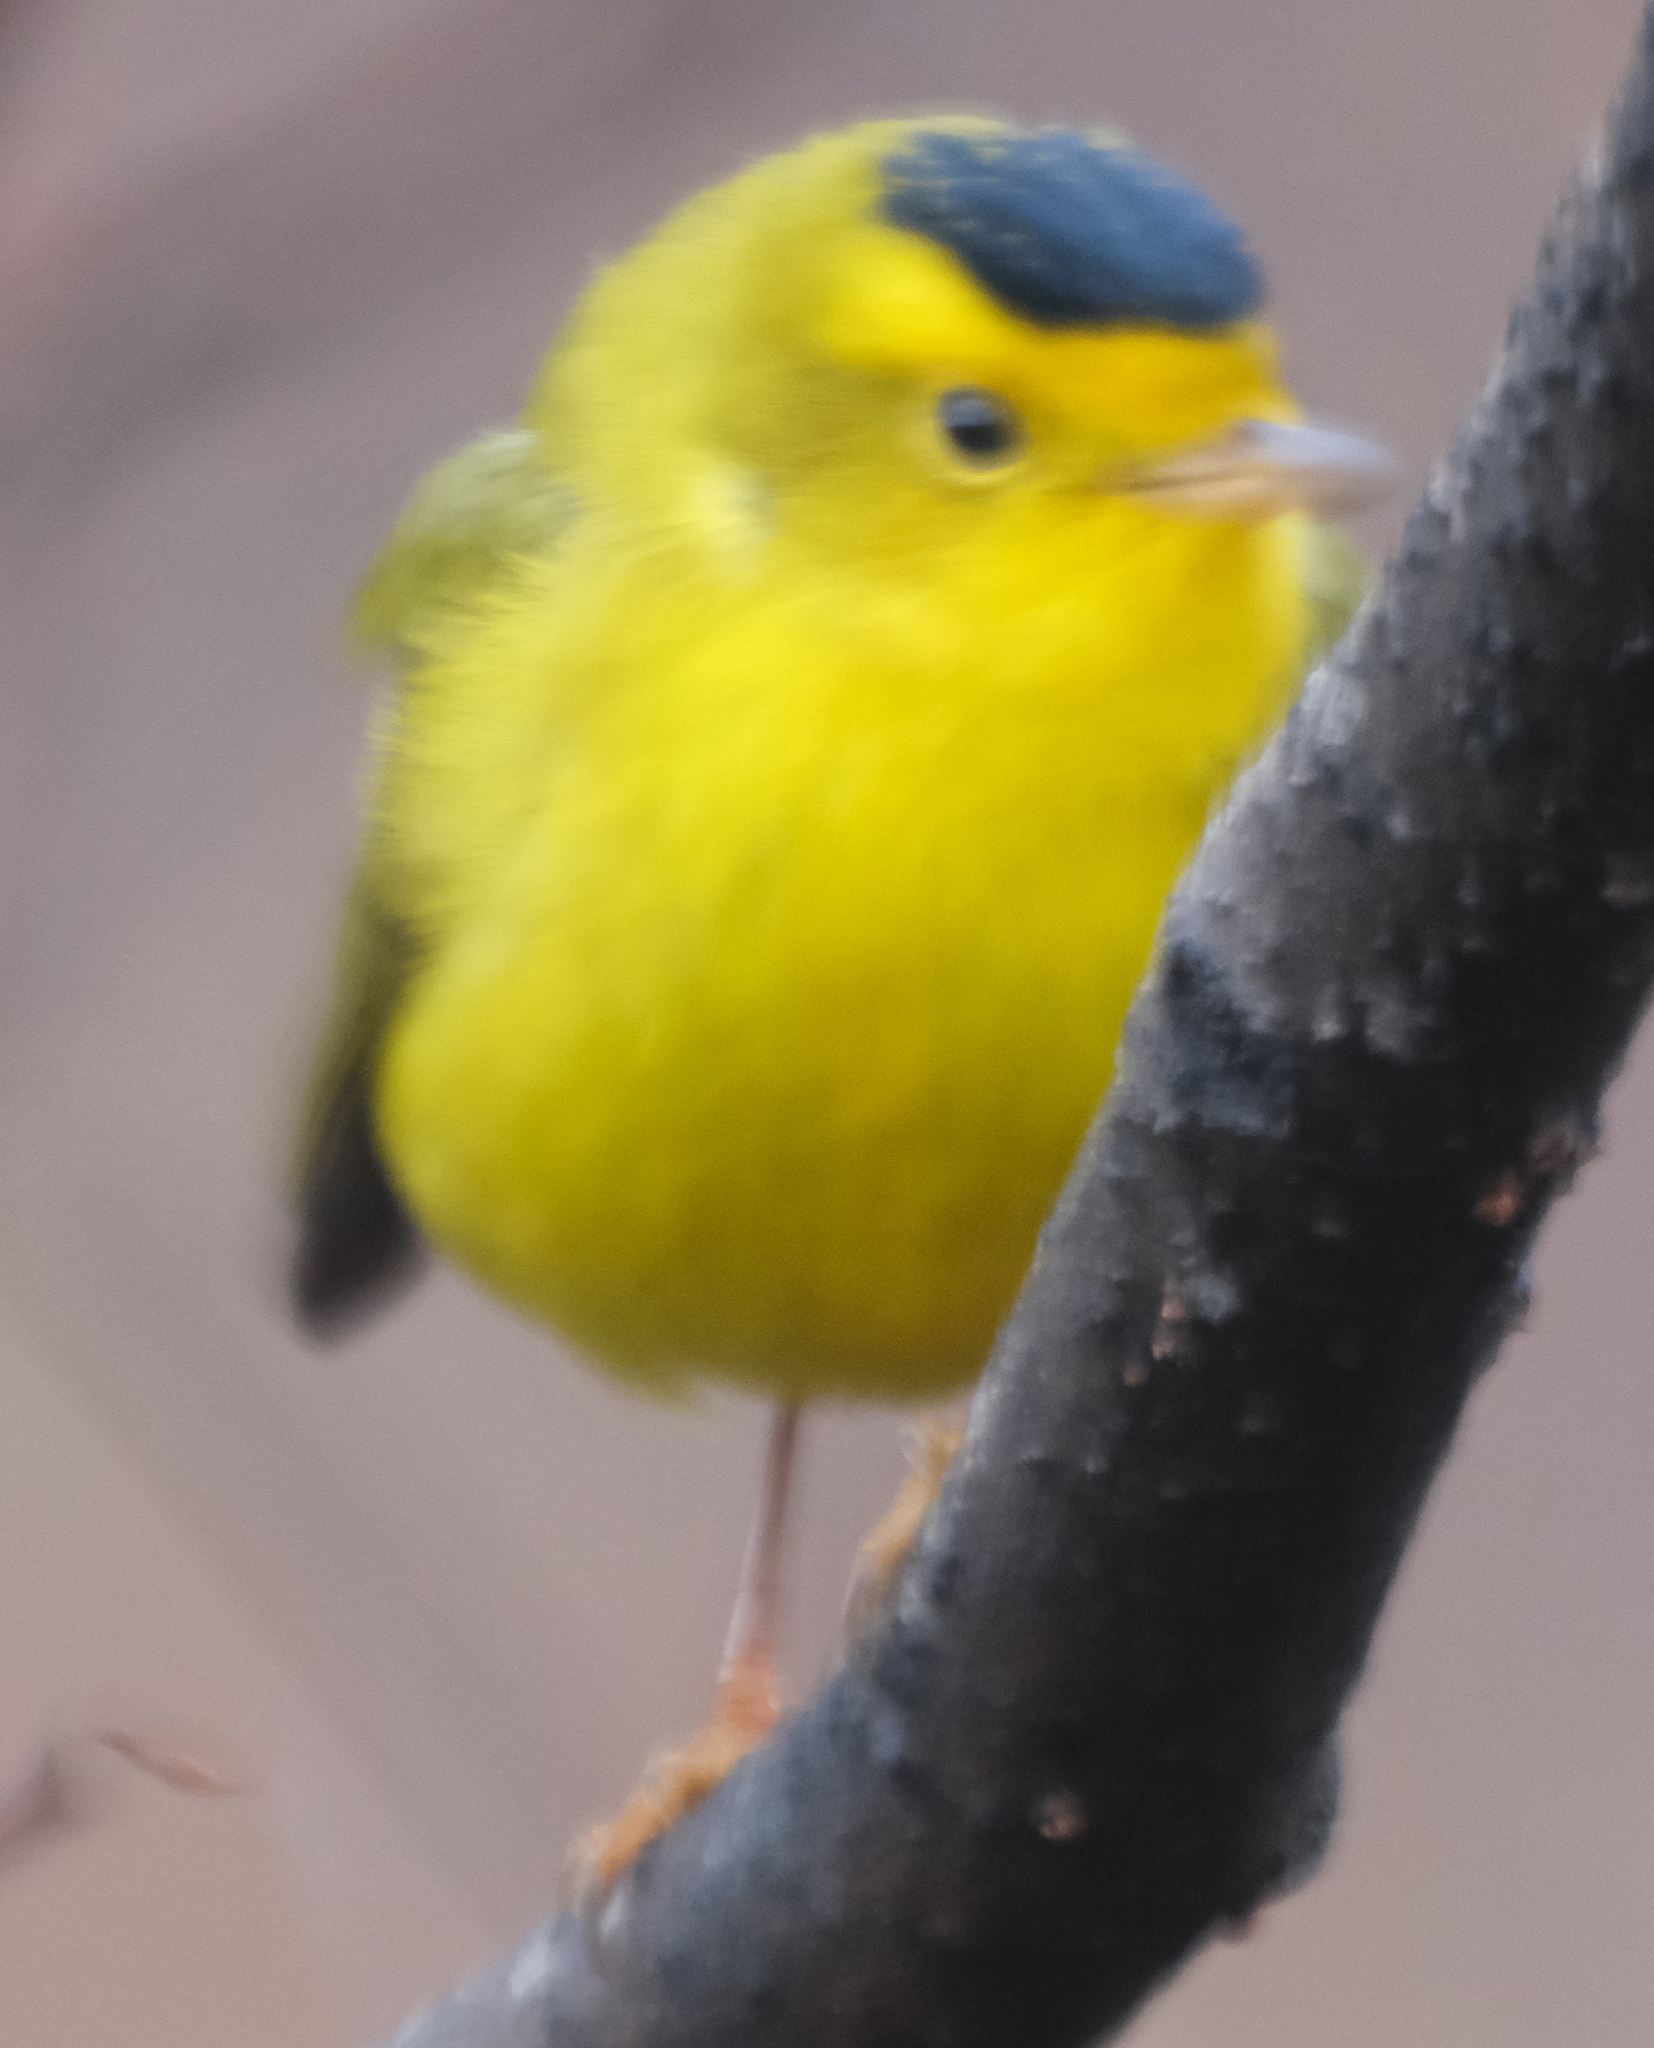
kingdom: Animalia
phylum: Chordata
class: Aves
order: Passeriformes
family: Parulidae
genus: Cardellina
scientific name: Cardellina pusilla
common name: Wilson's warbler
